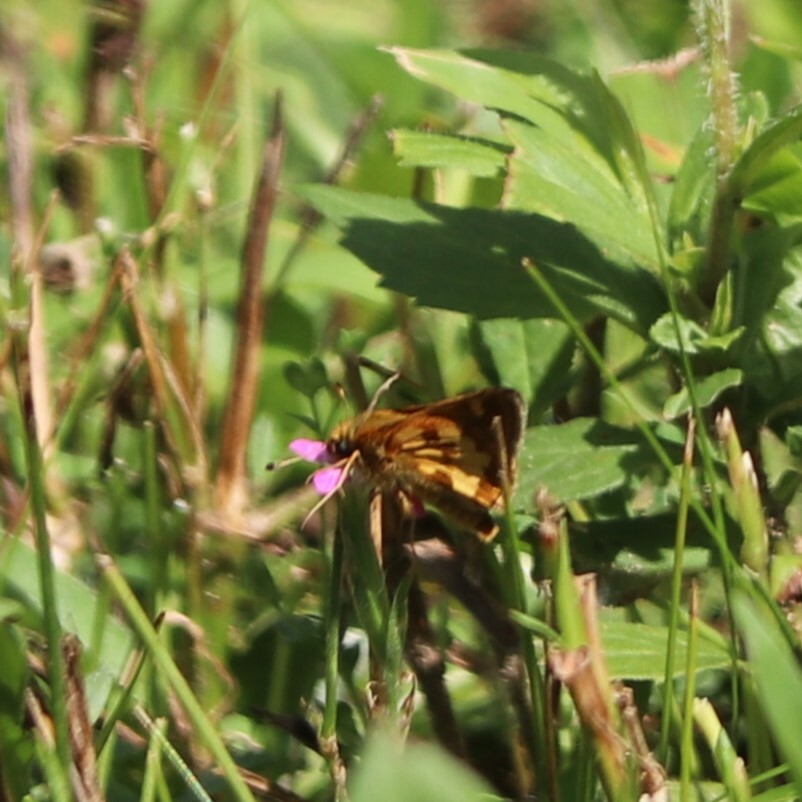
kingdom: Animalia
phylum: Arthropoda
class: Insecta
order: Lepidoptera
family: Hesperiidae
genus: Polites
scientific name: Polites coras
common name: Peck's skipper
